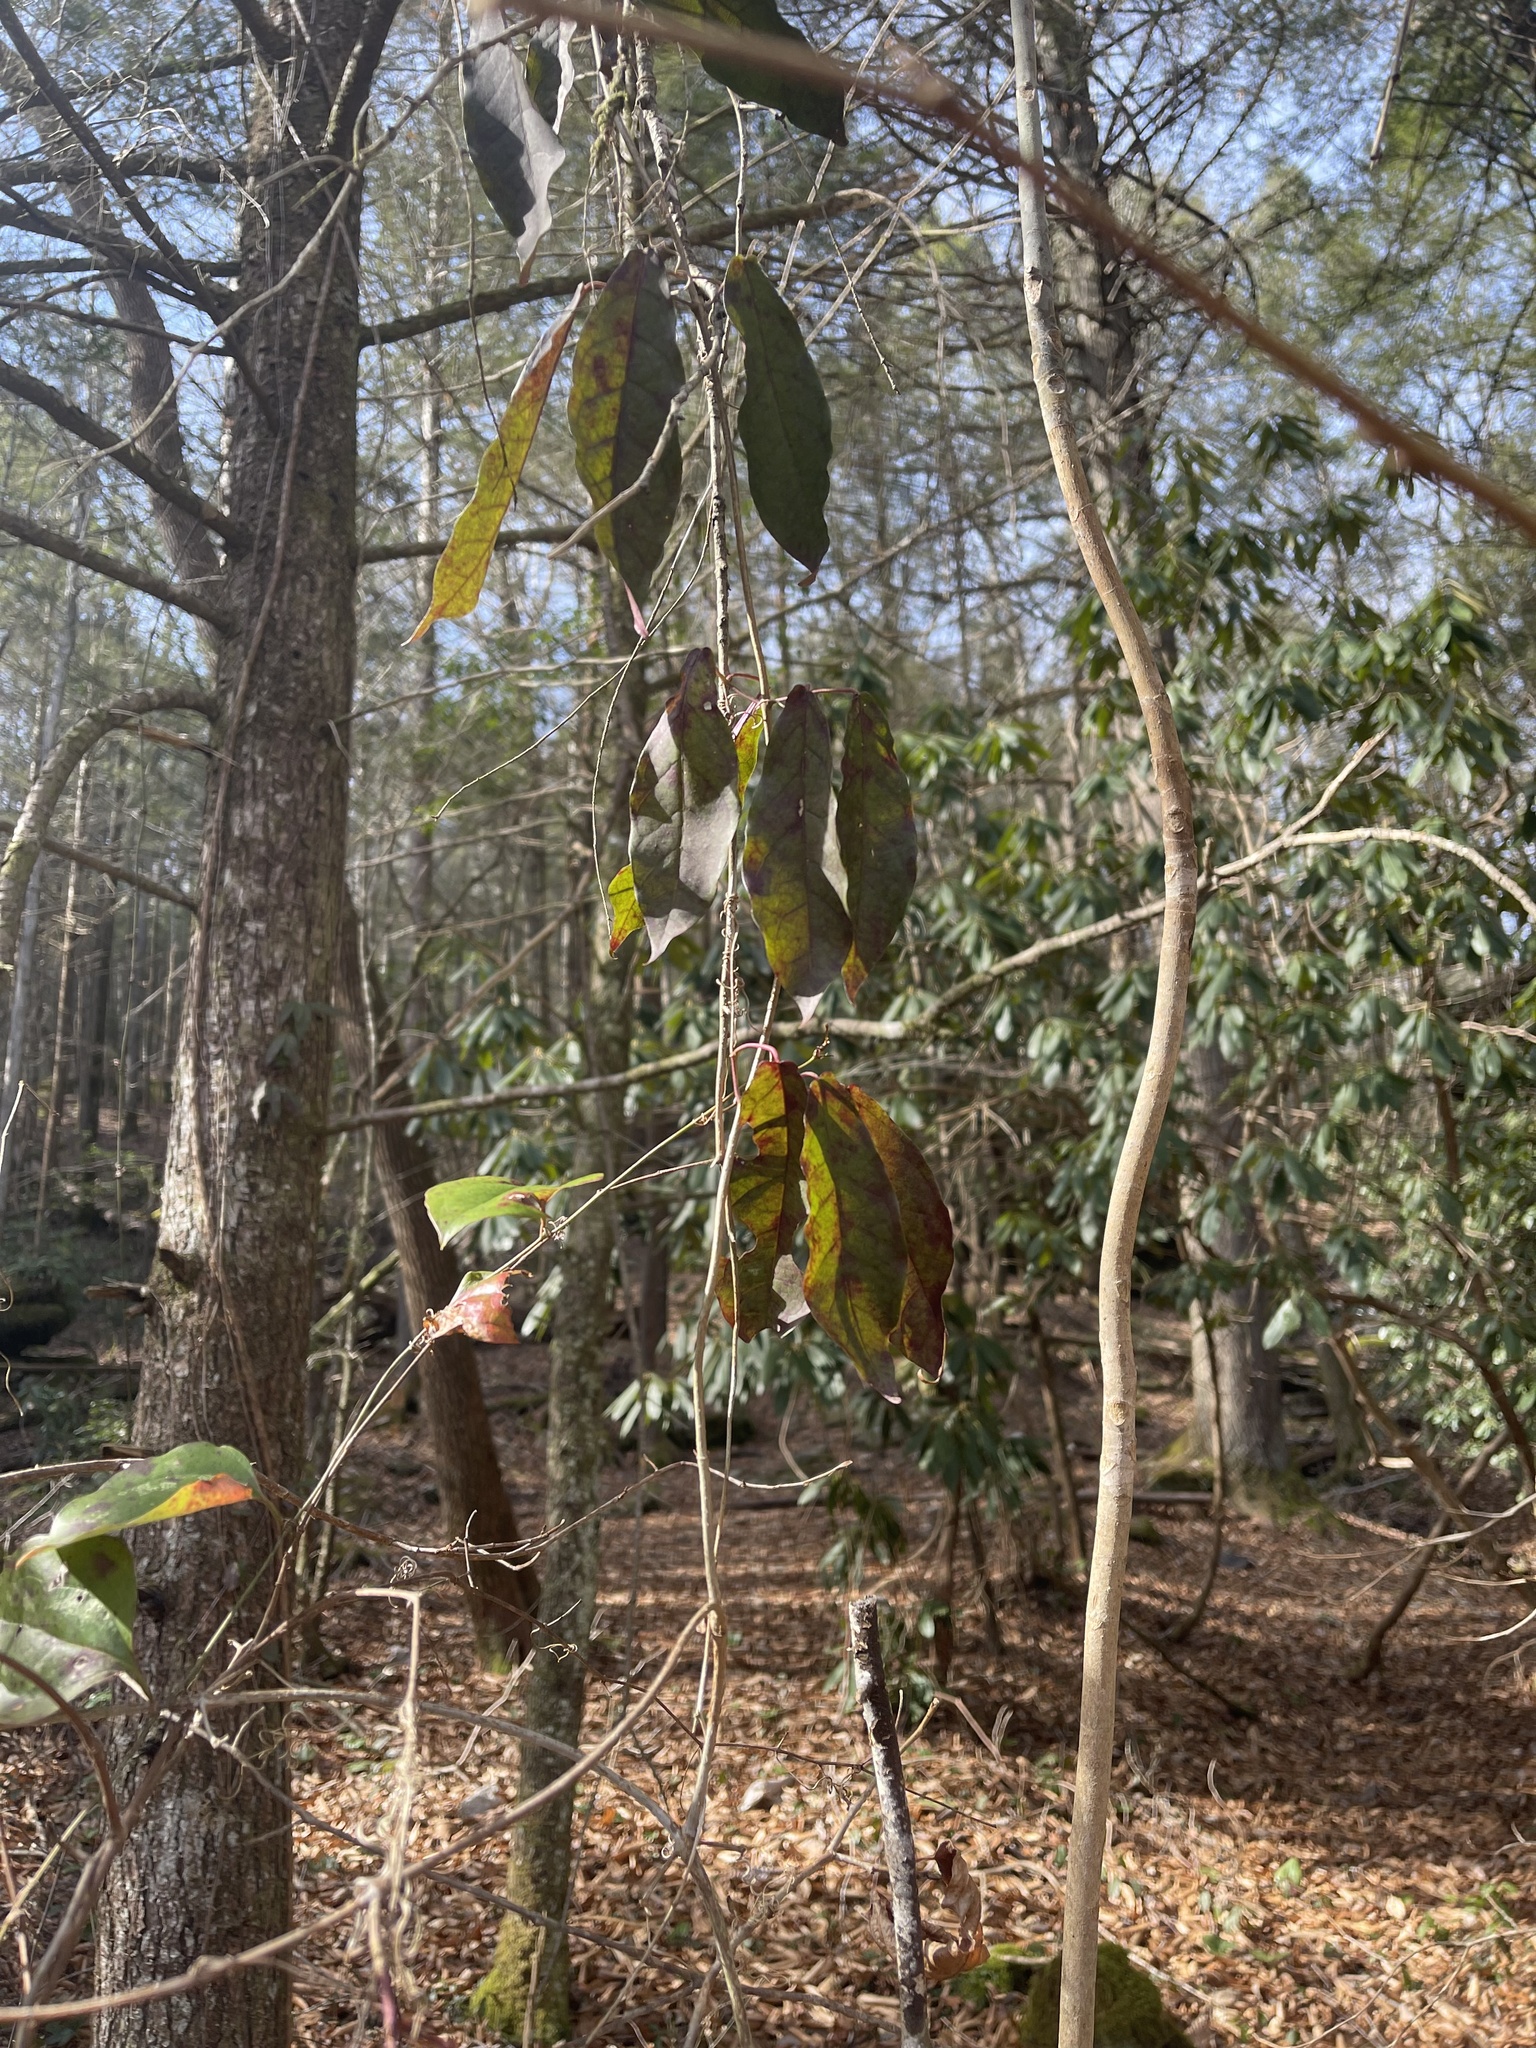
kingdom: Plantae
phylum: Tracheophyta
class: Magnoliopsida
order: Lamiales
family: Bignoniaceae
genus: Bignonia
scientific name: Bignonia capreolata
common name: Crossvine
